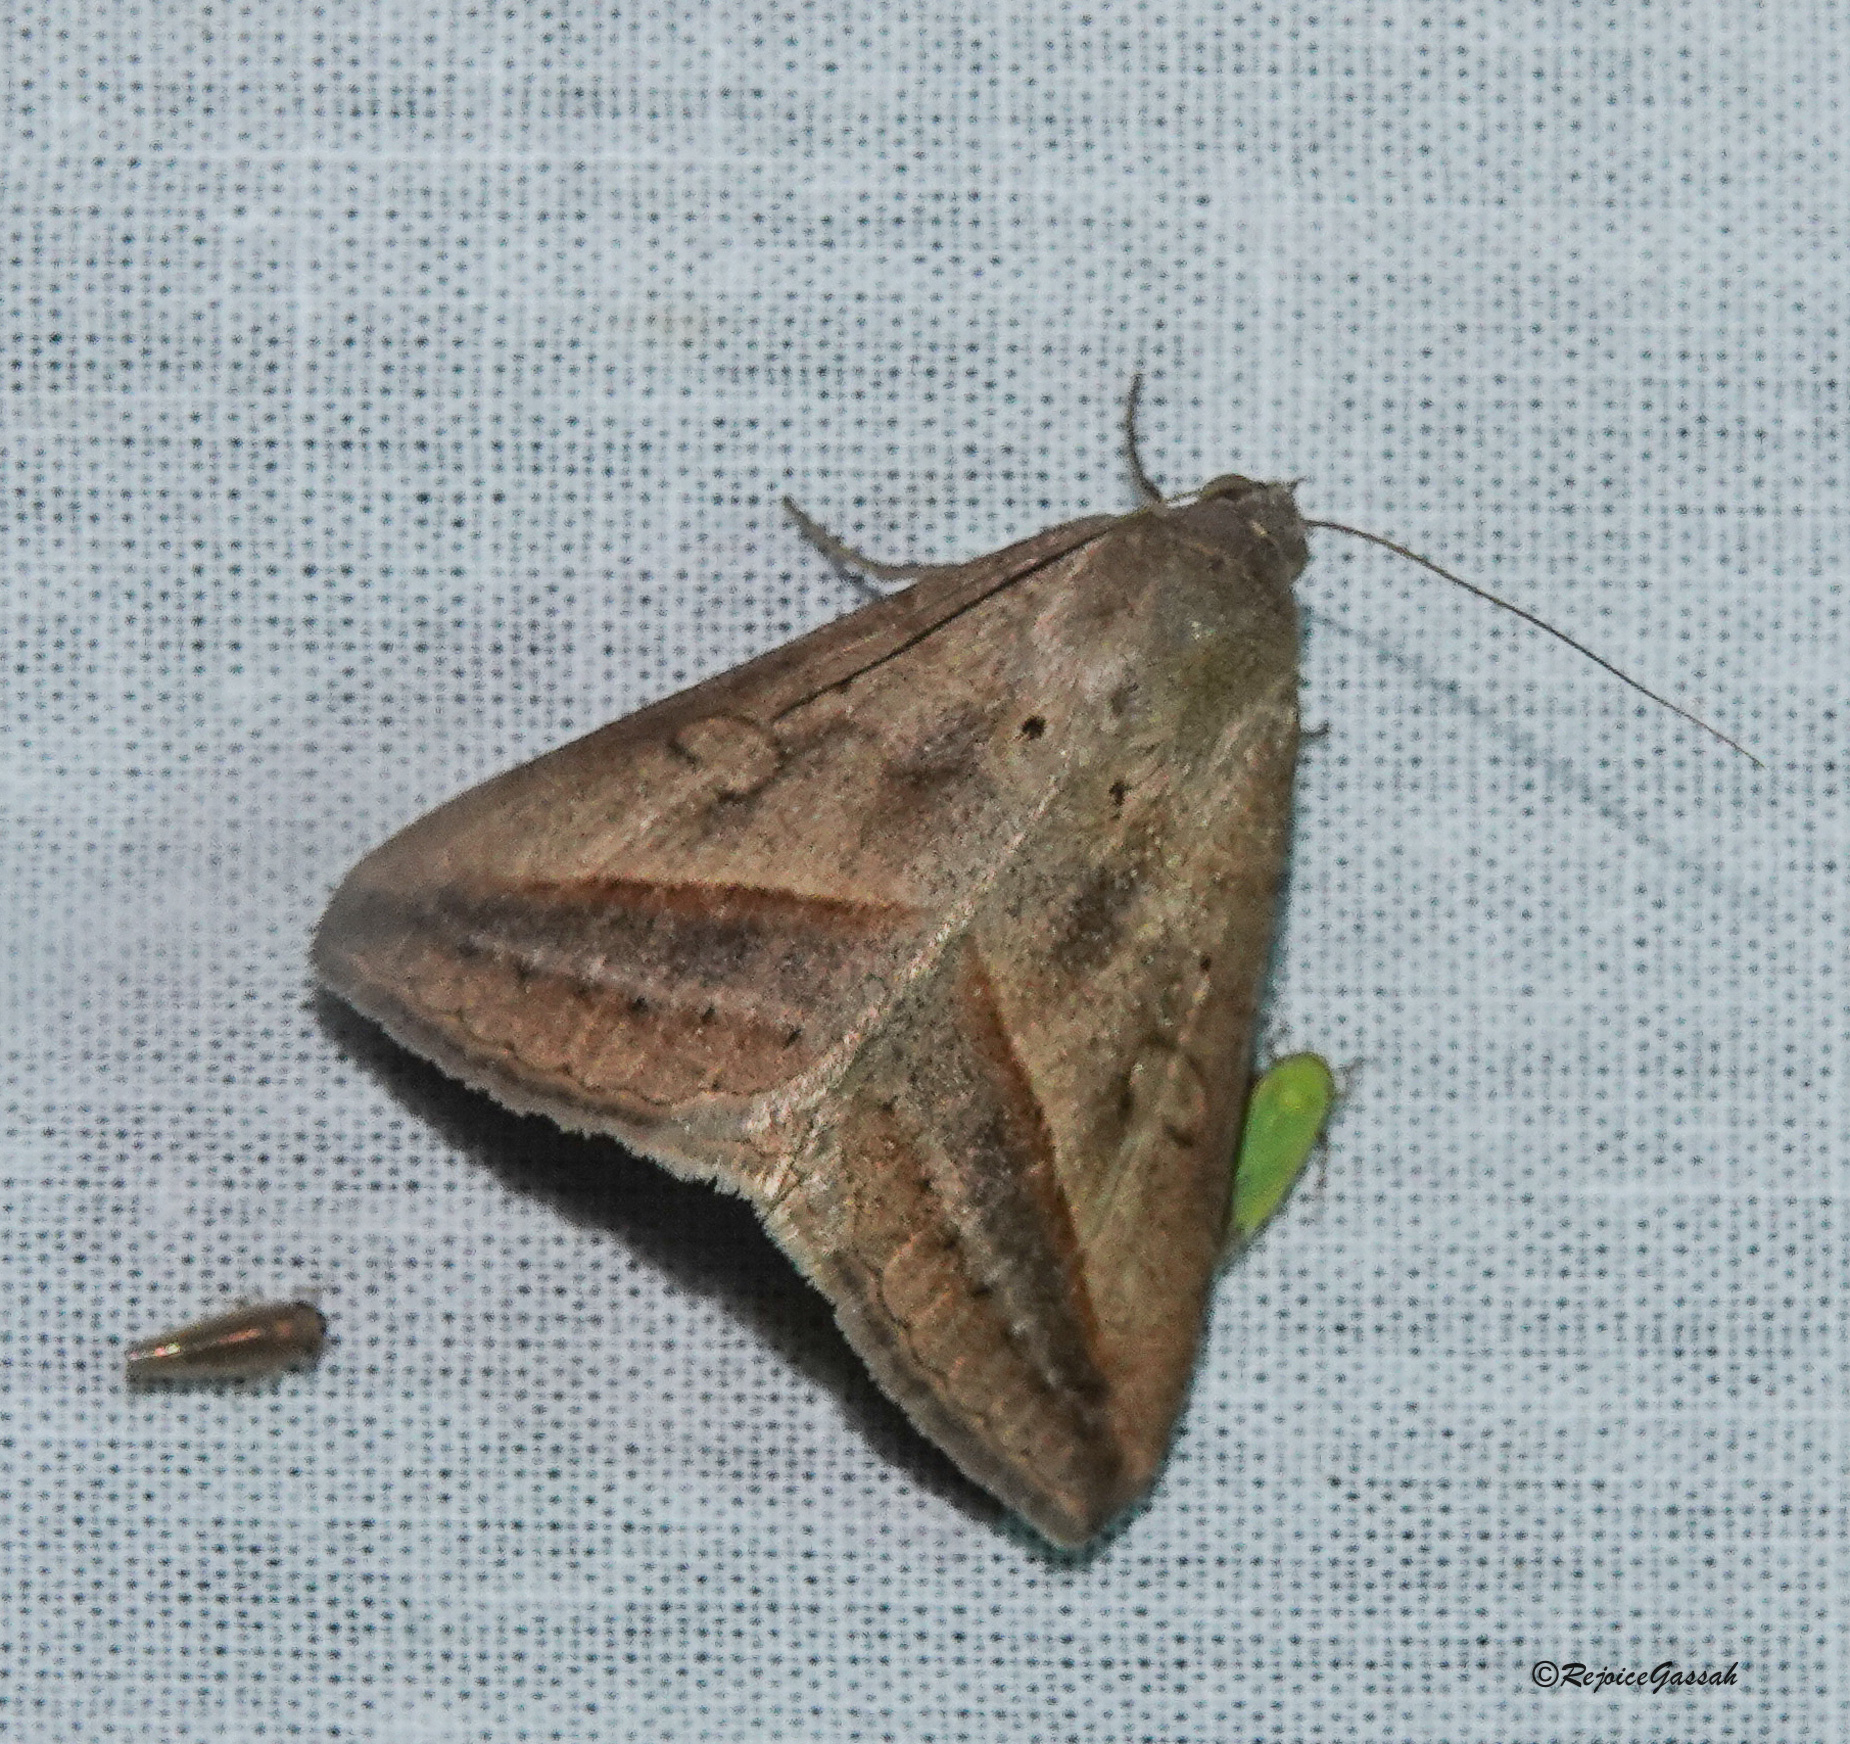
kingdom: Animalia
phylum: Arthropoda
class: Insecta
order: Lepidoptera
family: Erebidae
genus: Mocis
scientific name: Mocis frugalis
